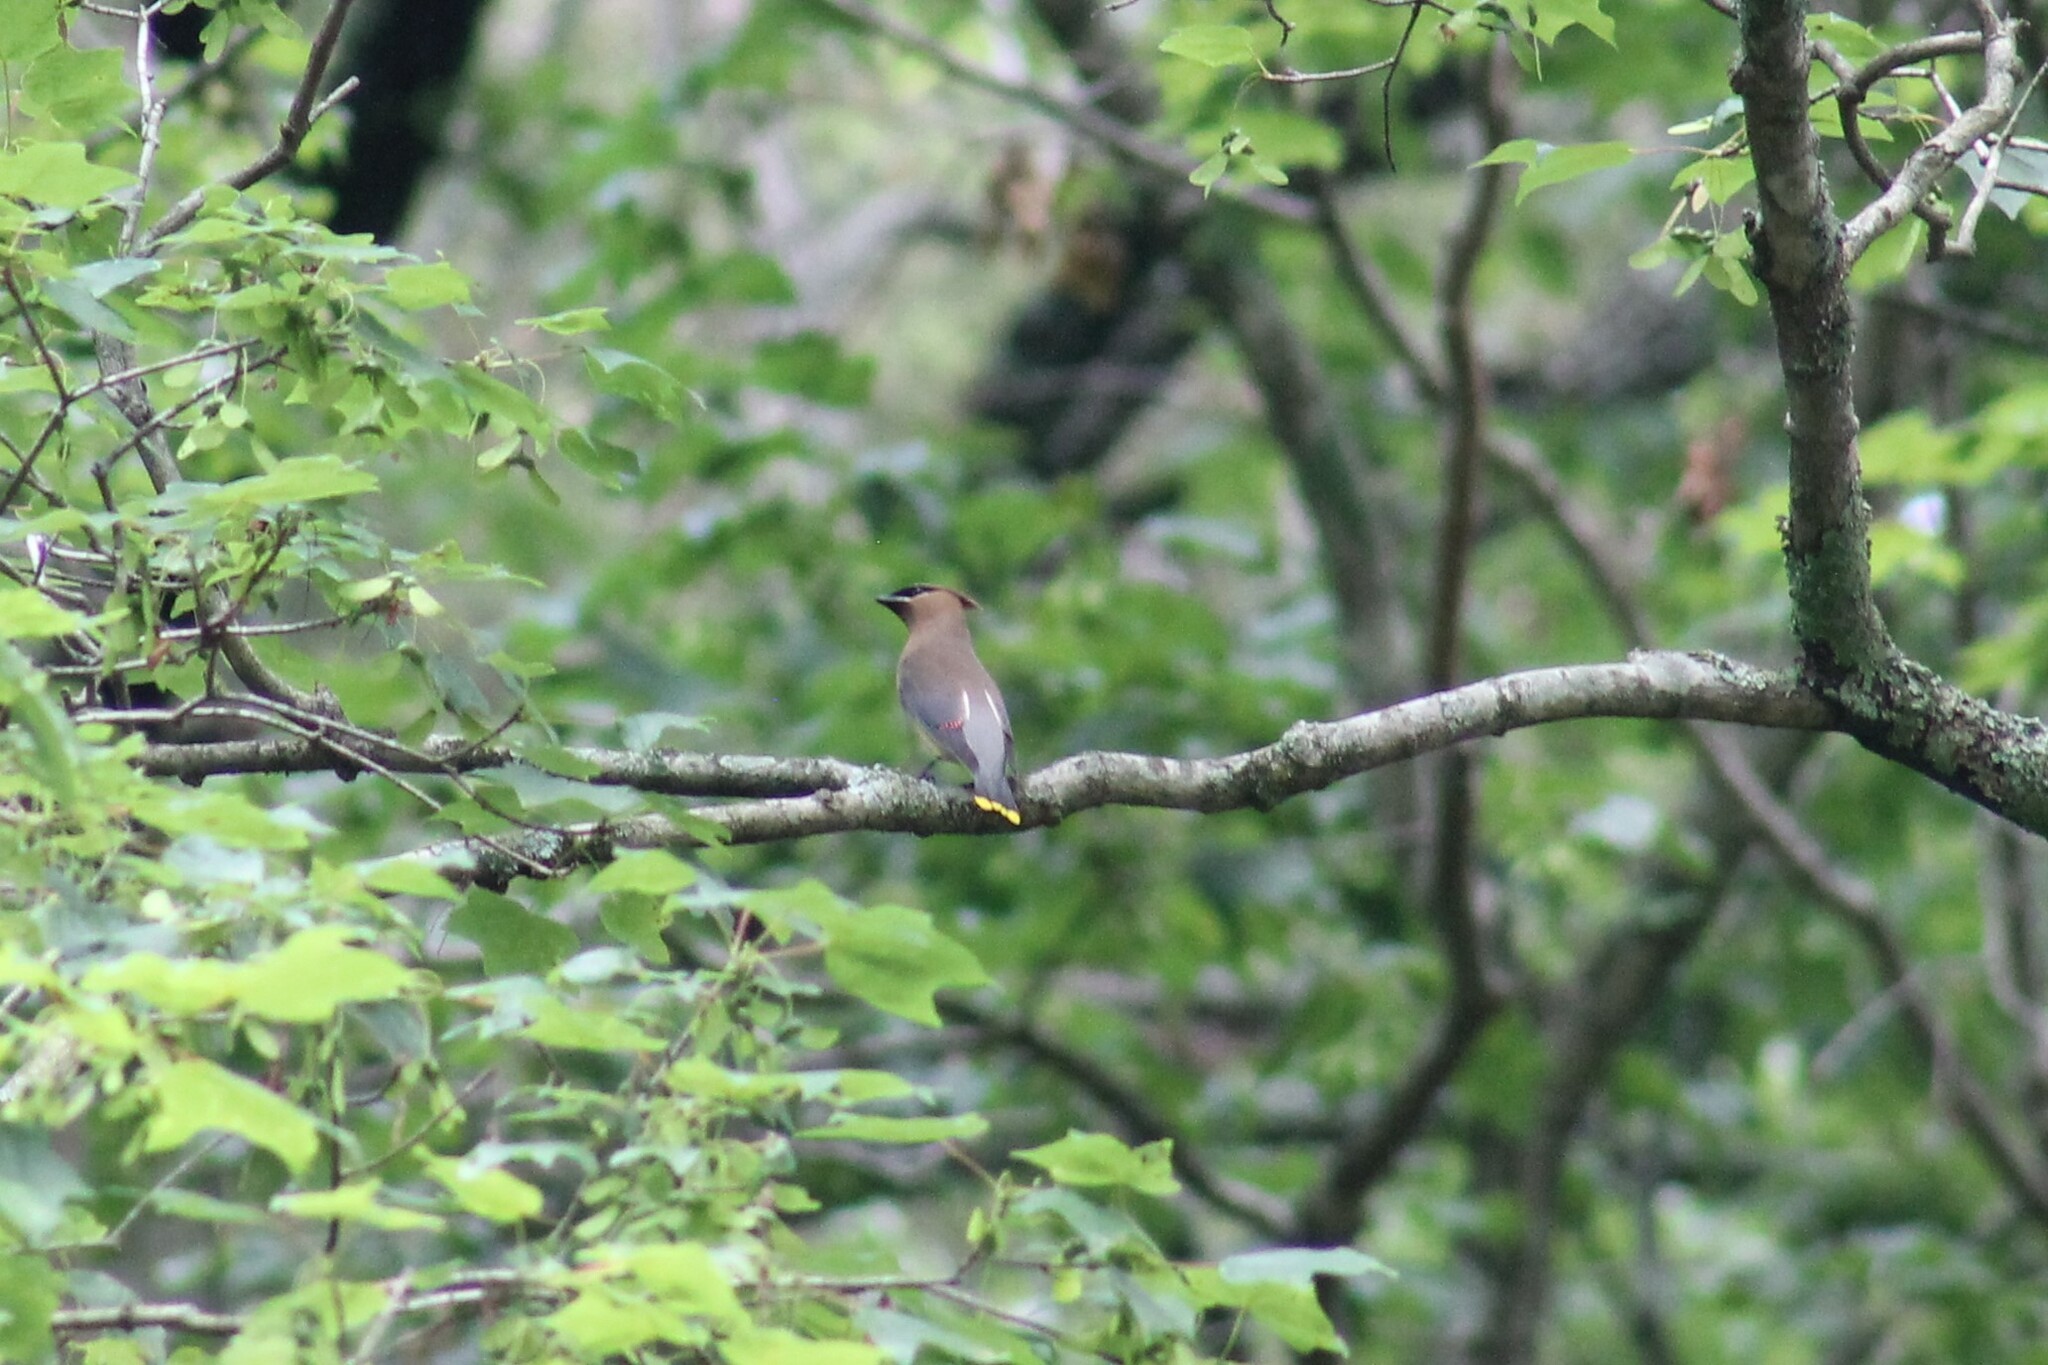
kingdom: Animalia
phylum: Chordata
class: Aves
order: Passeriformes
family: Bombycillidae
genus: Bombycilla
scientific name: Bombycilla cedrorum
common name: Cedar waxwing
